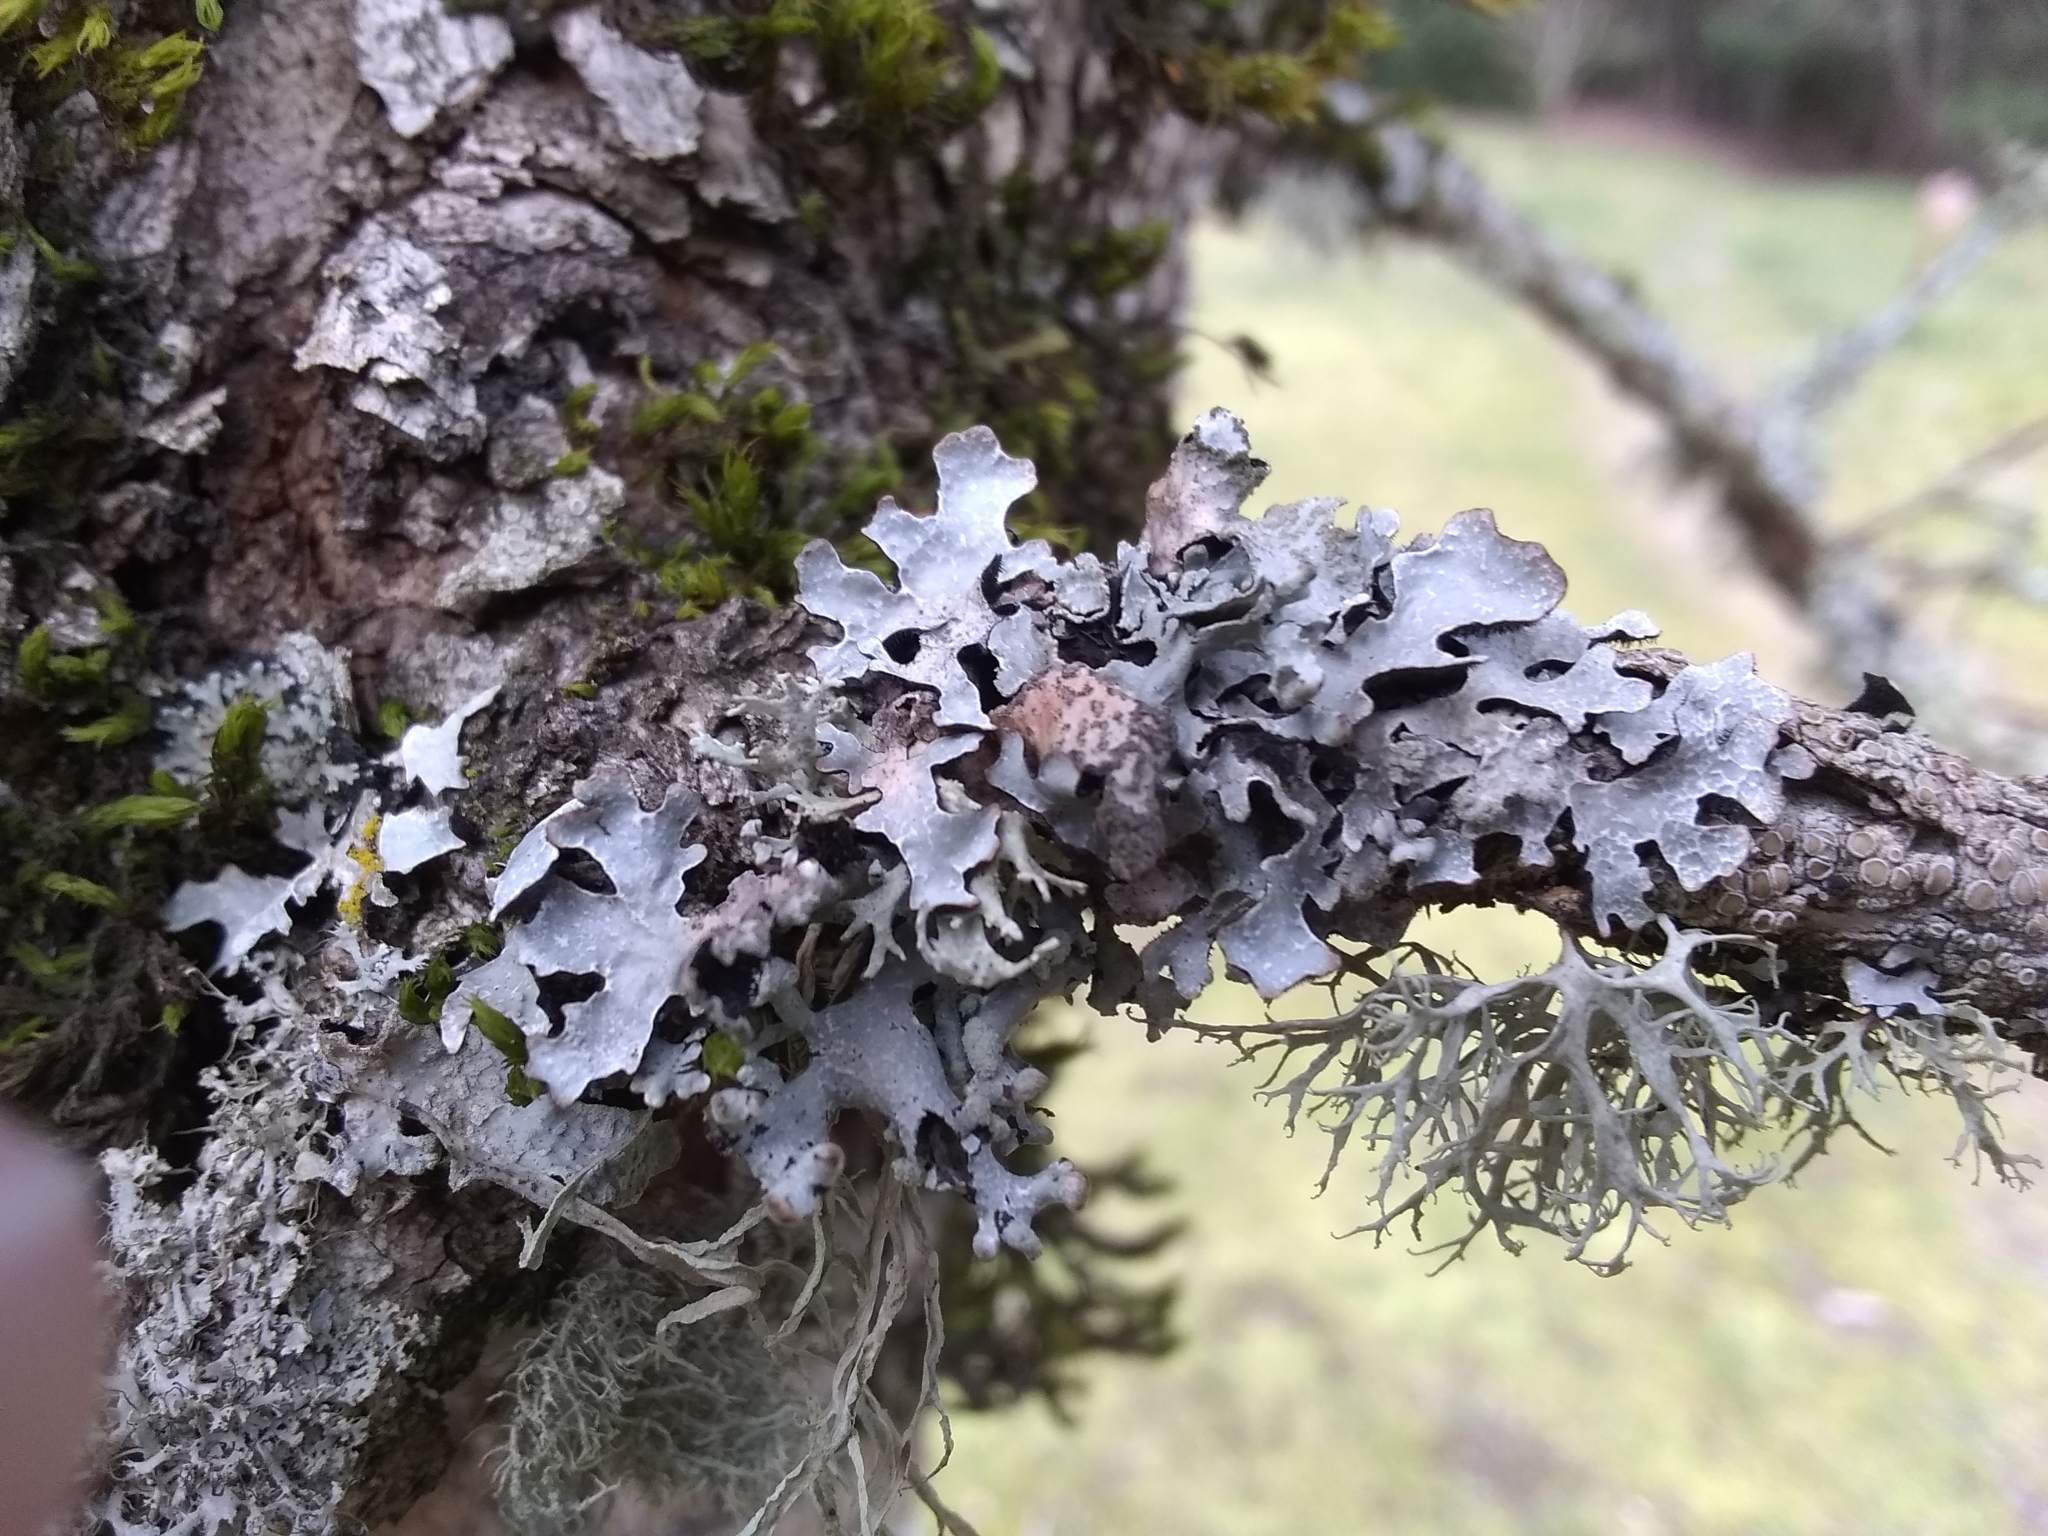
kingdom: Fungi
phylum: Ascomycota
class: Lecanoromycetes
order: Lecanorales
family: Parmeliaceae
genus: Parmelia
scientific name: Parmelia sulcata
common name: Netted shield lichen
